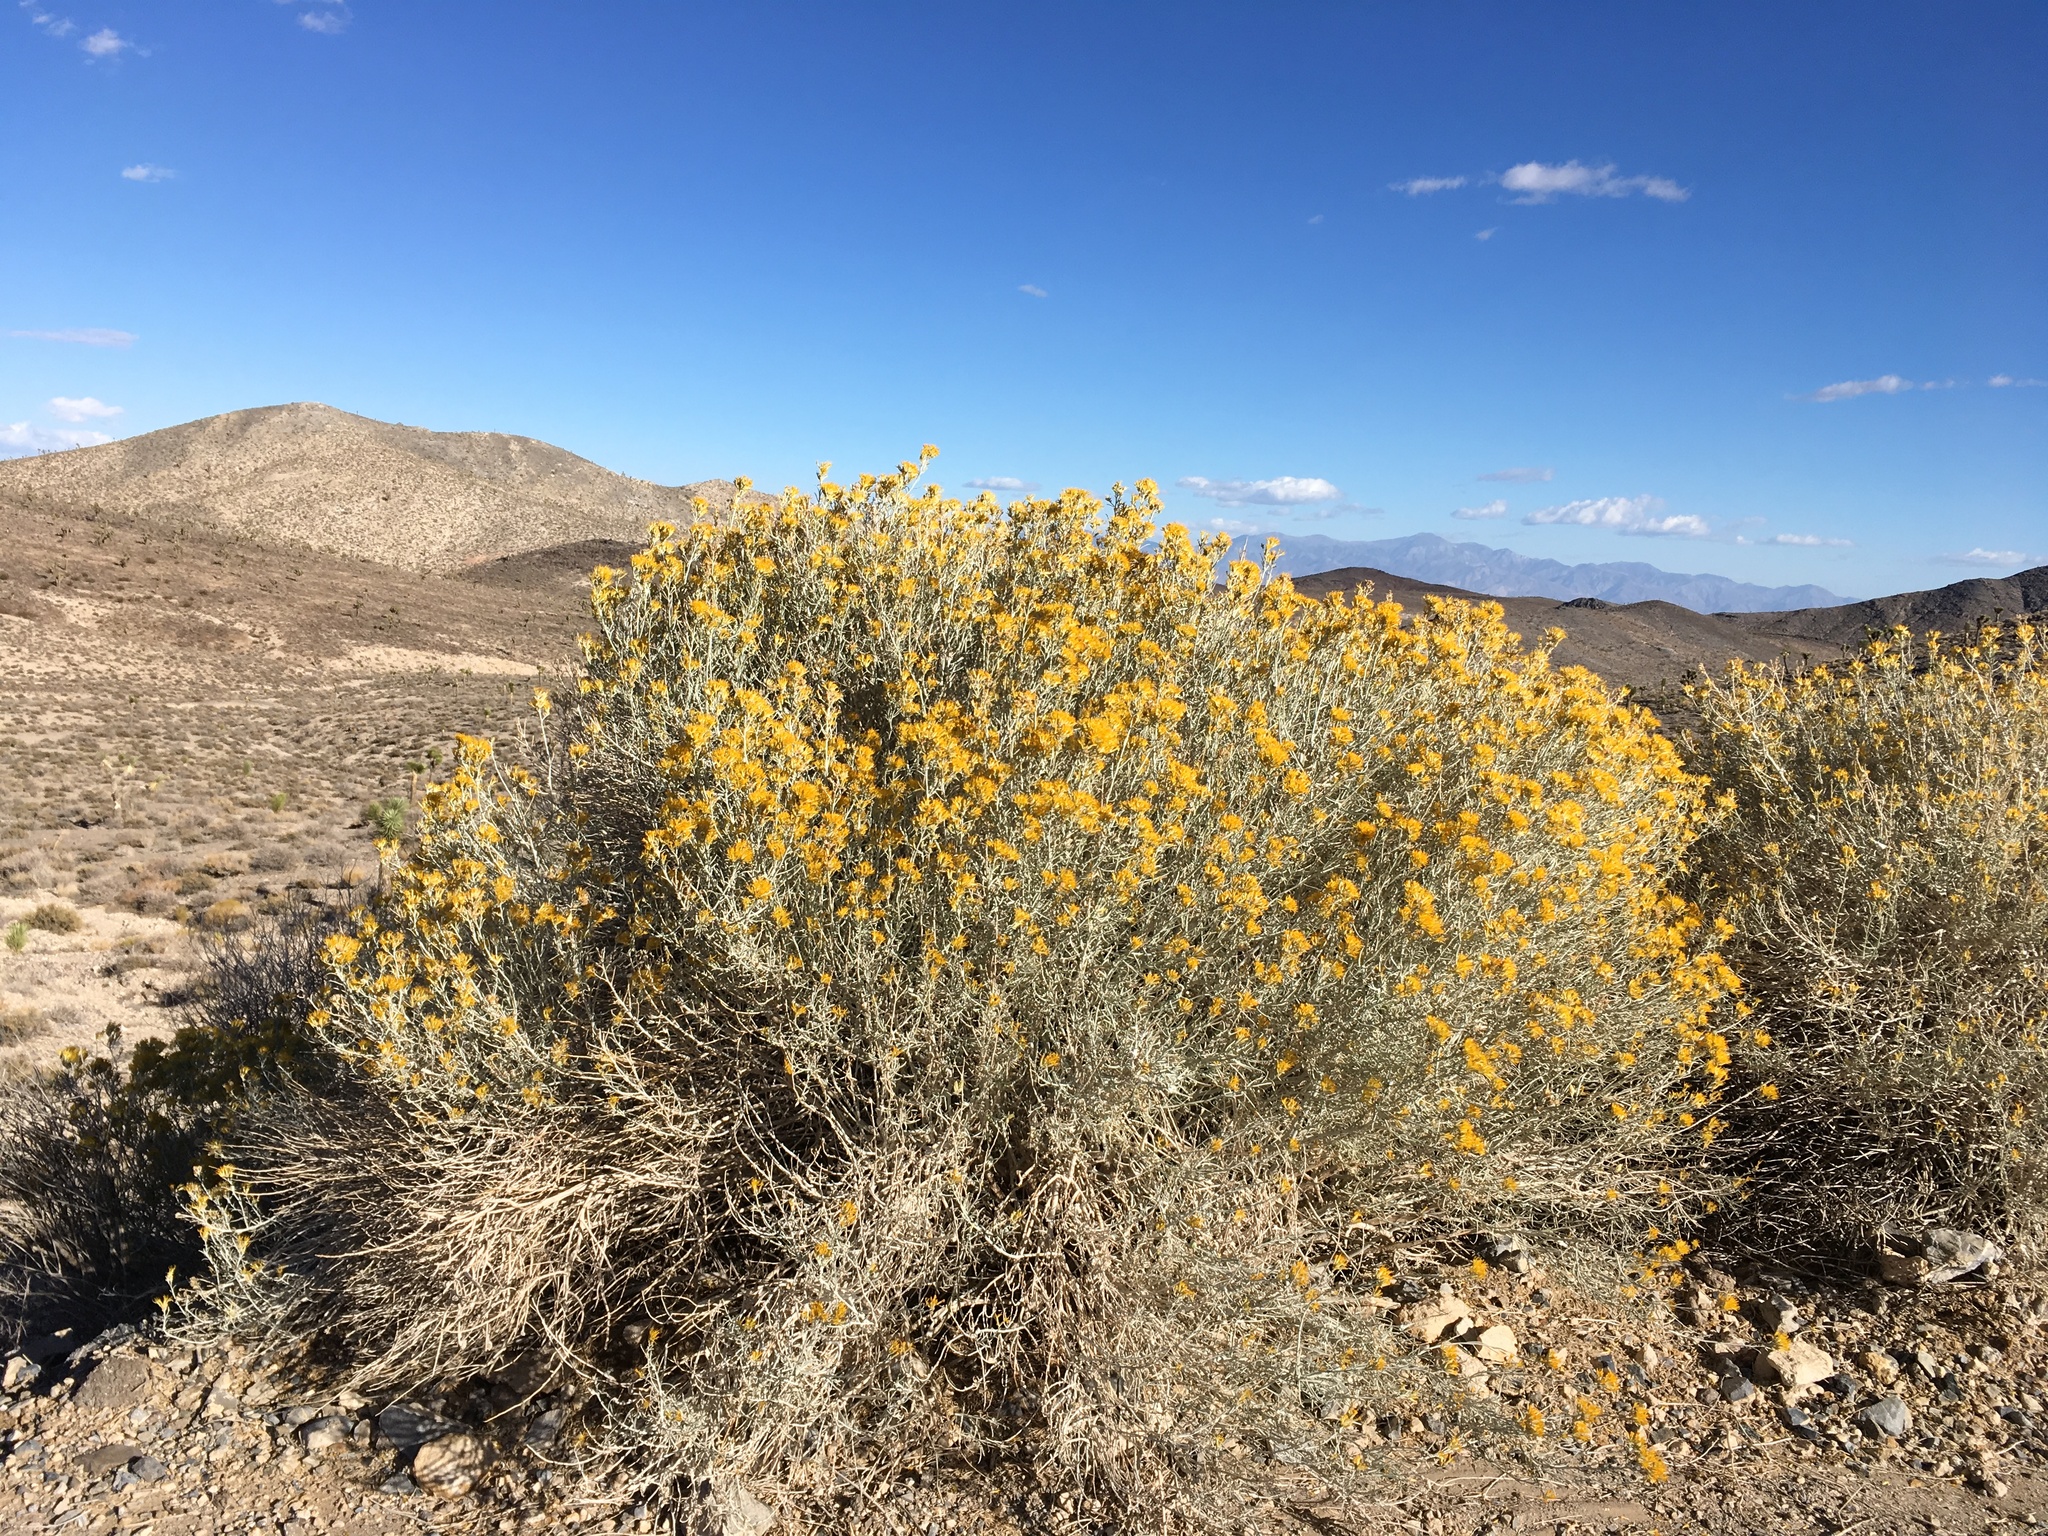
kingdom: Plantae
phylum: Tracheophyta
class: Magnoliopsida
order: Asterales
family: Asteraceae
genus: Ericameria
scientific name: Ericameria nauseosa
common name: Rubber rabbitbrush
